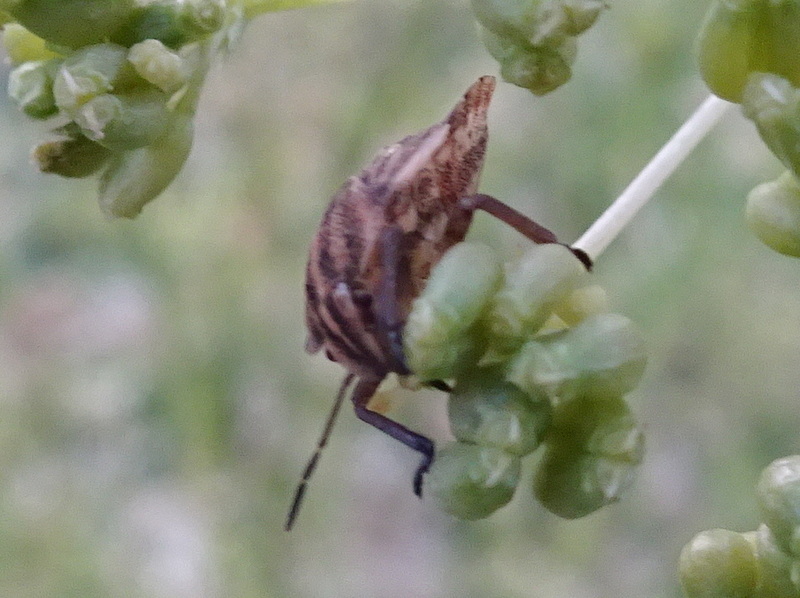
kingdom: Animalia
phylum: Arthropoda
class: Insecta
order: Hemiptera
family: Pentatomidae
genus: Graphosoma
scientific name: Graphosoma italicum
